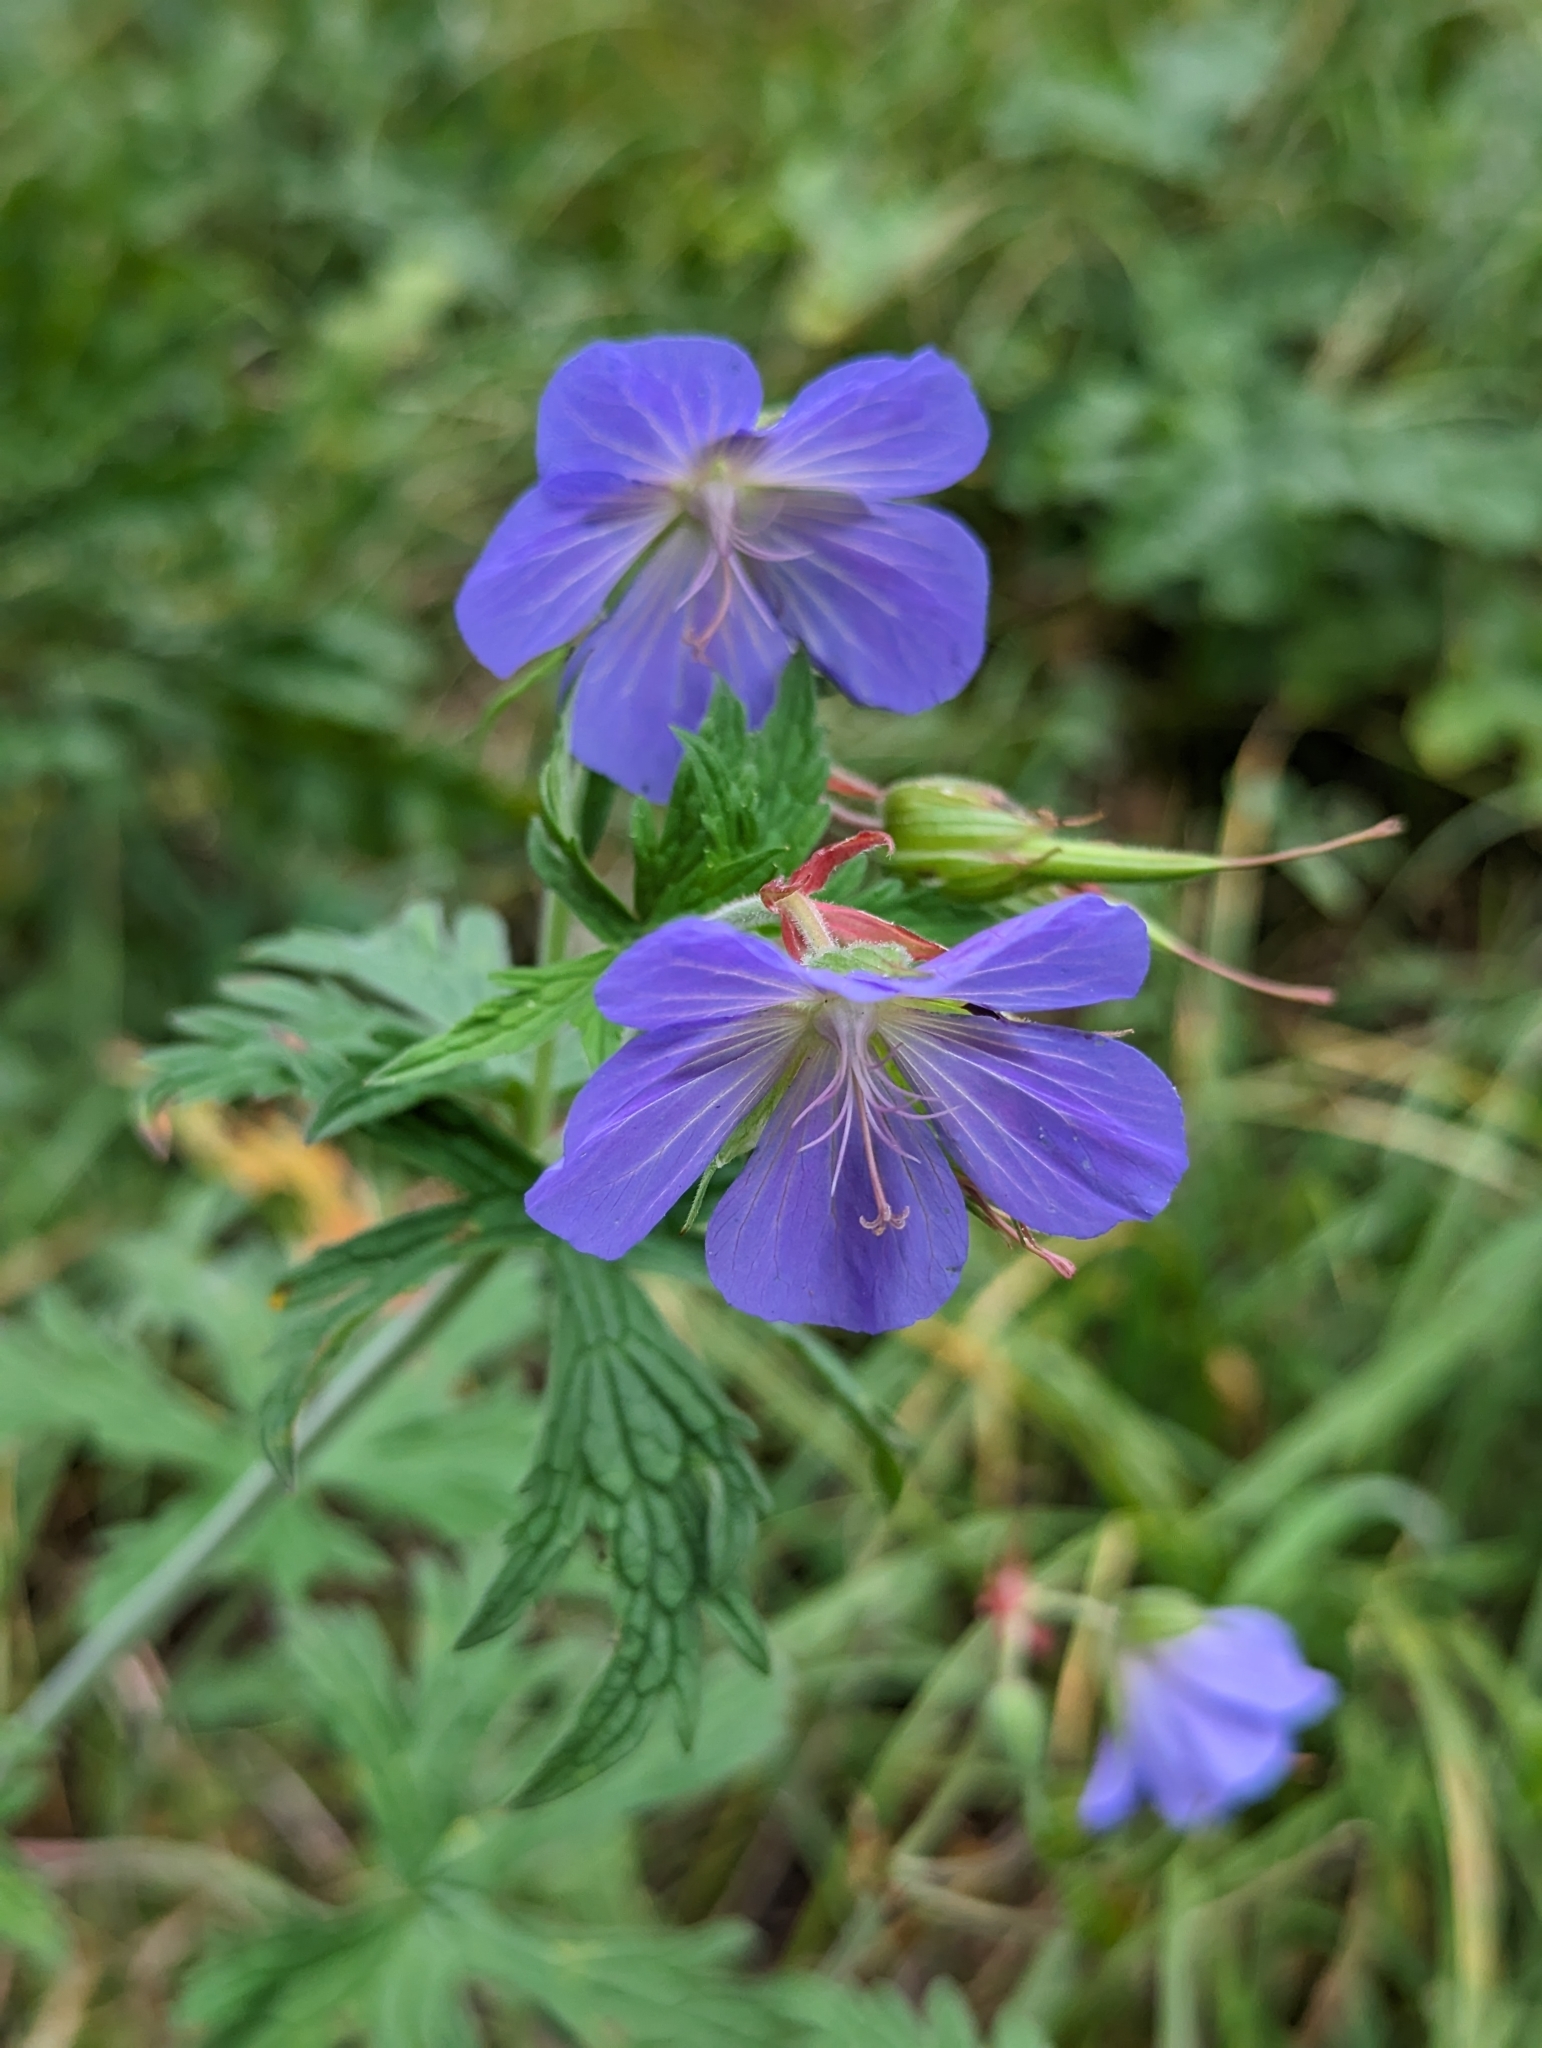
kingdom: Plantae
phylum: Tracheophyta
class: Magnoliopsida
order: Geraniales
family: Geraniaceae
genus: Geranium
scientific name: Geranium pratense
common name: Meadow crane's-bill
